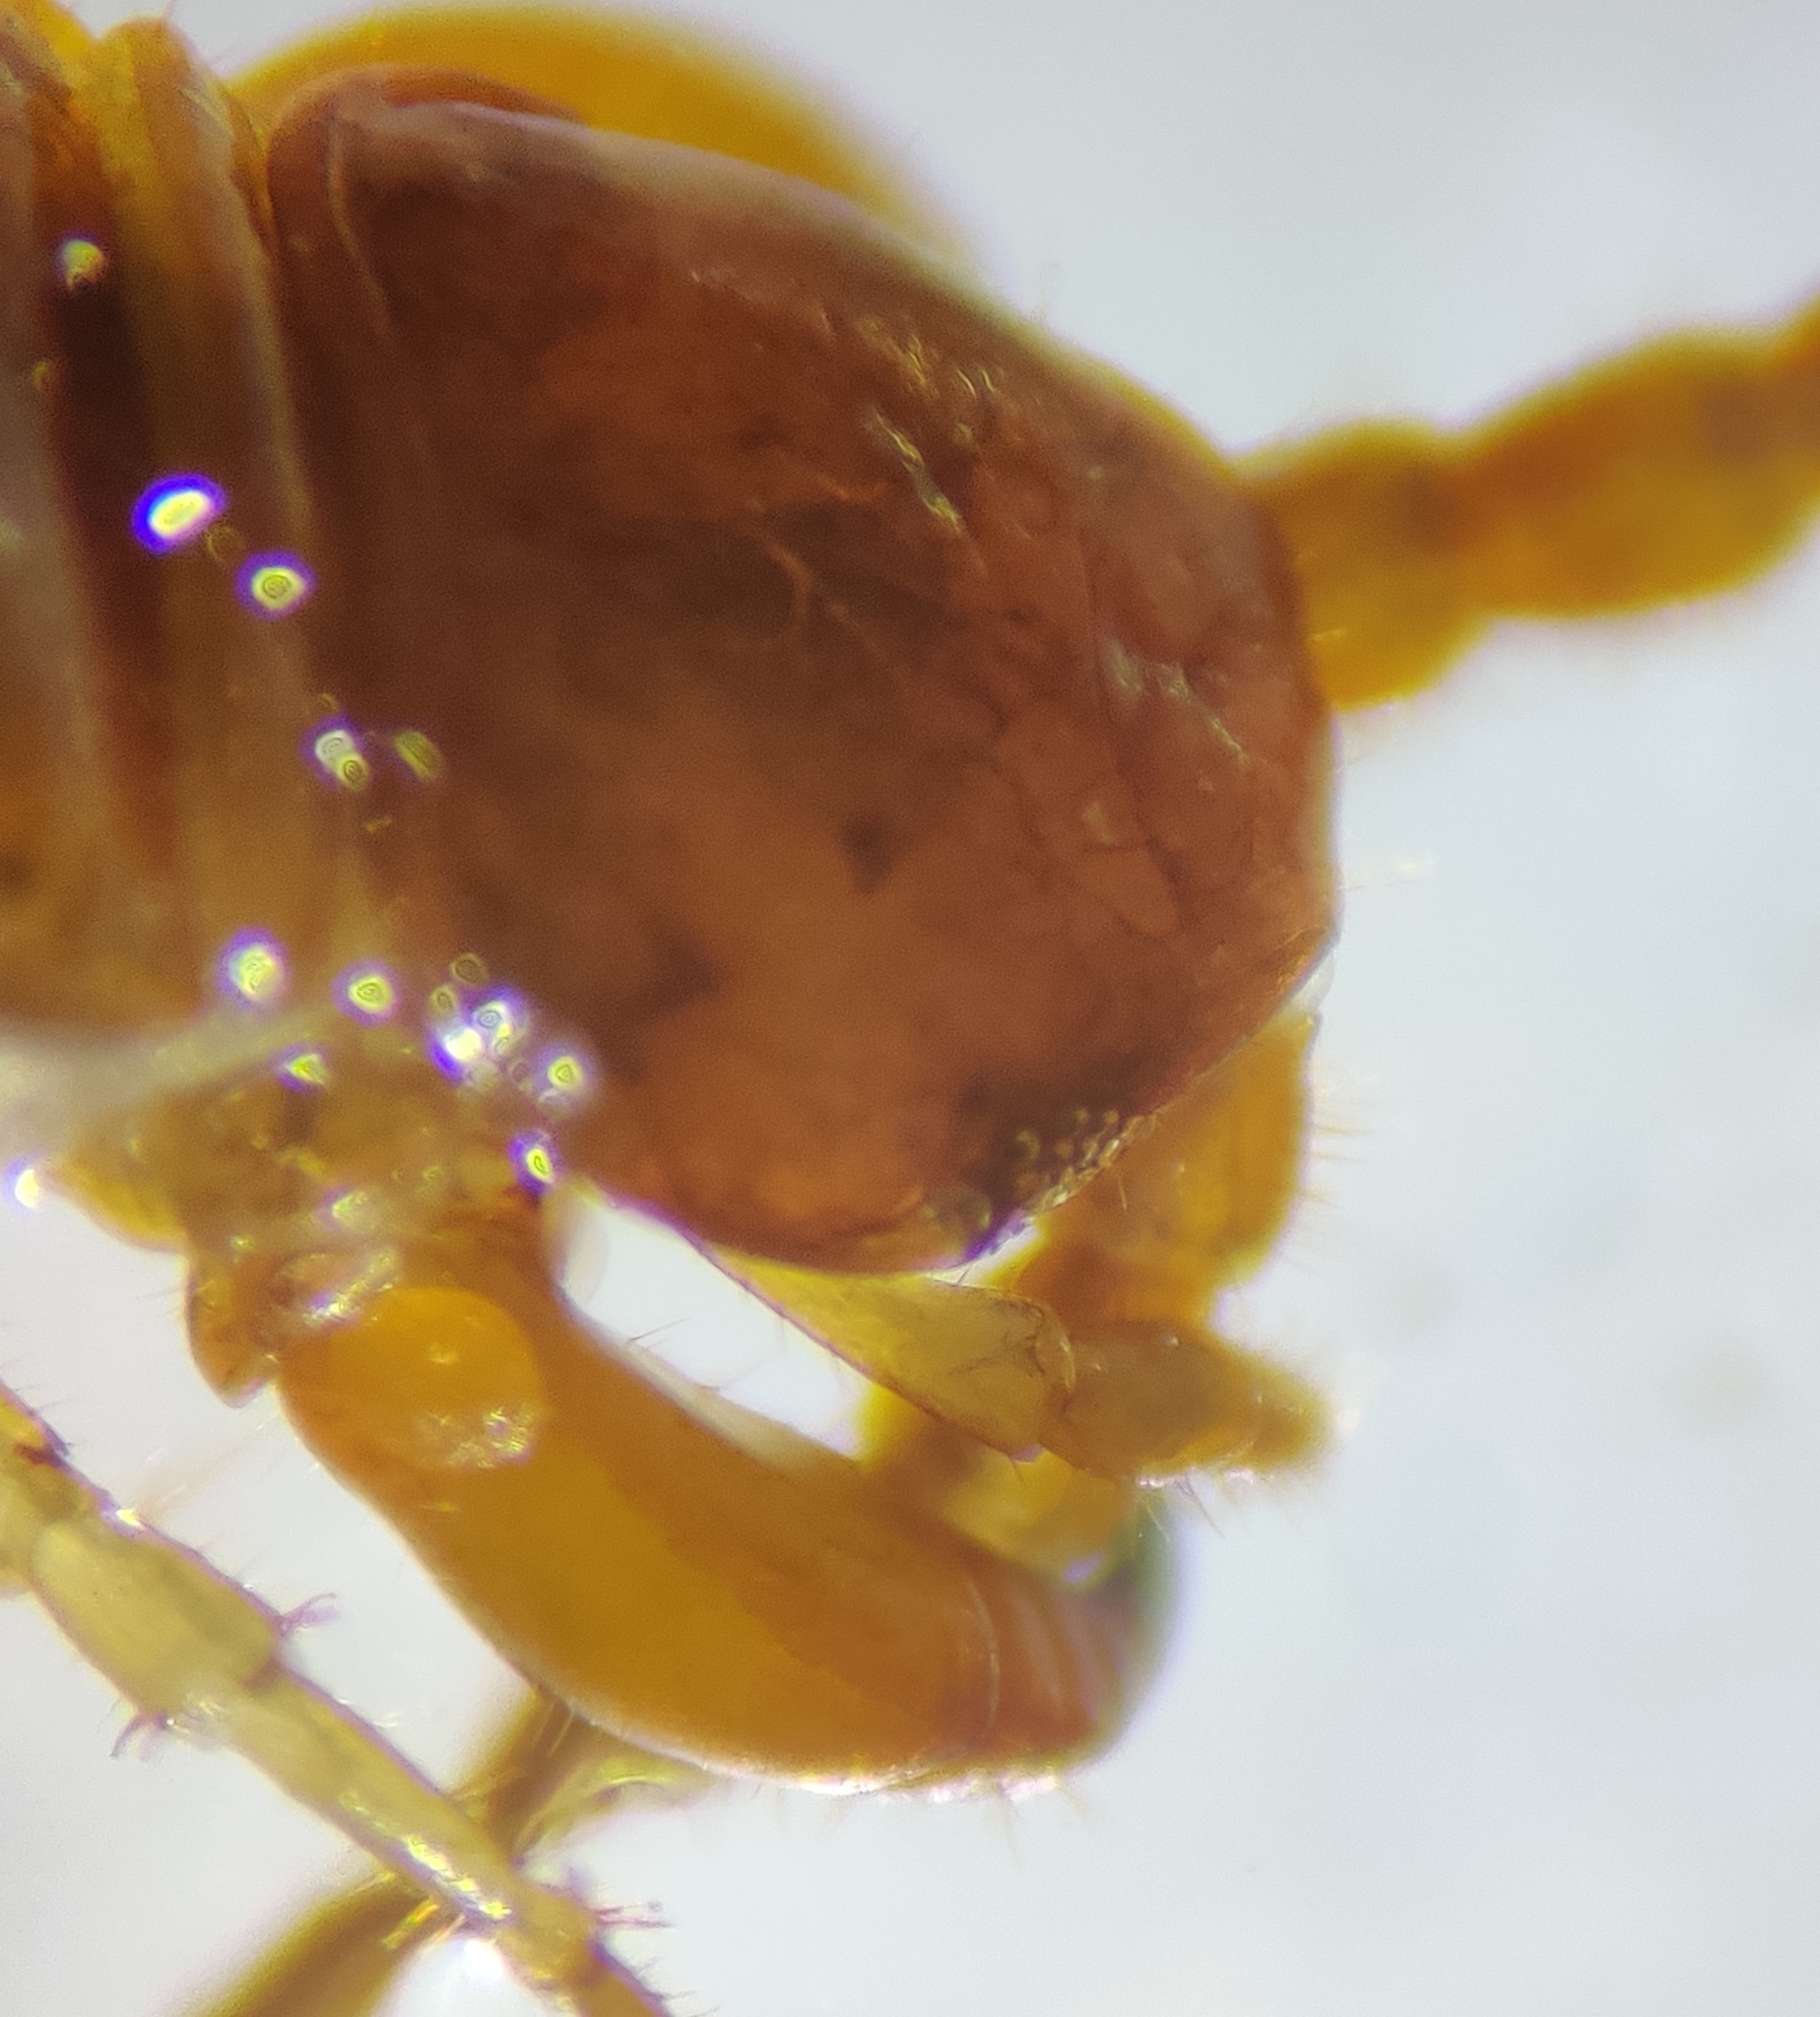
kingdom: Animalia
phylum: Arthropoda
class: Chilopoda
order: Lithobiomorpha
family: Lithobiidae
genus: Lithobius
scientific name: Lithobius forficatus
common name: Centipede
